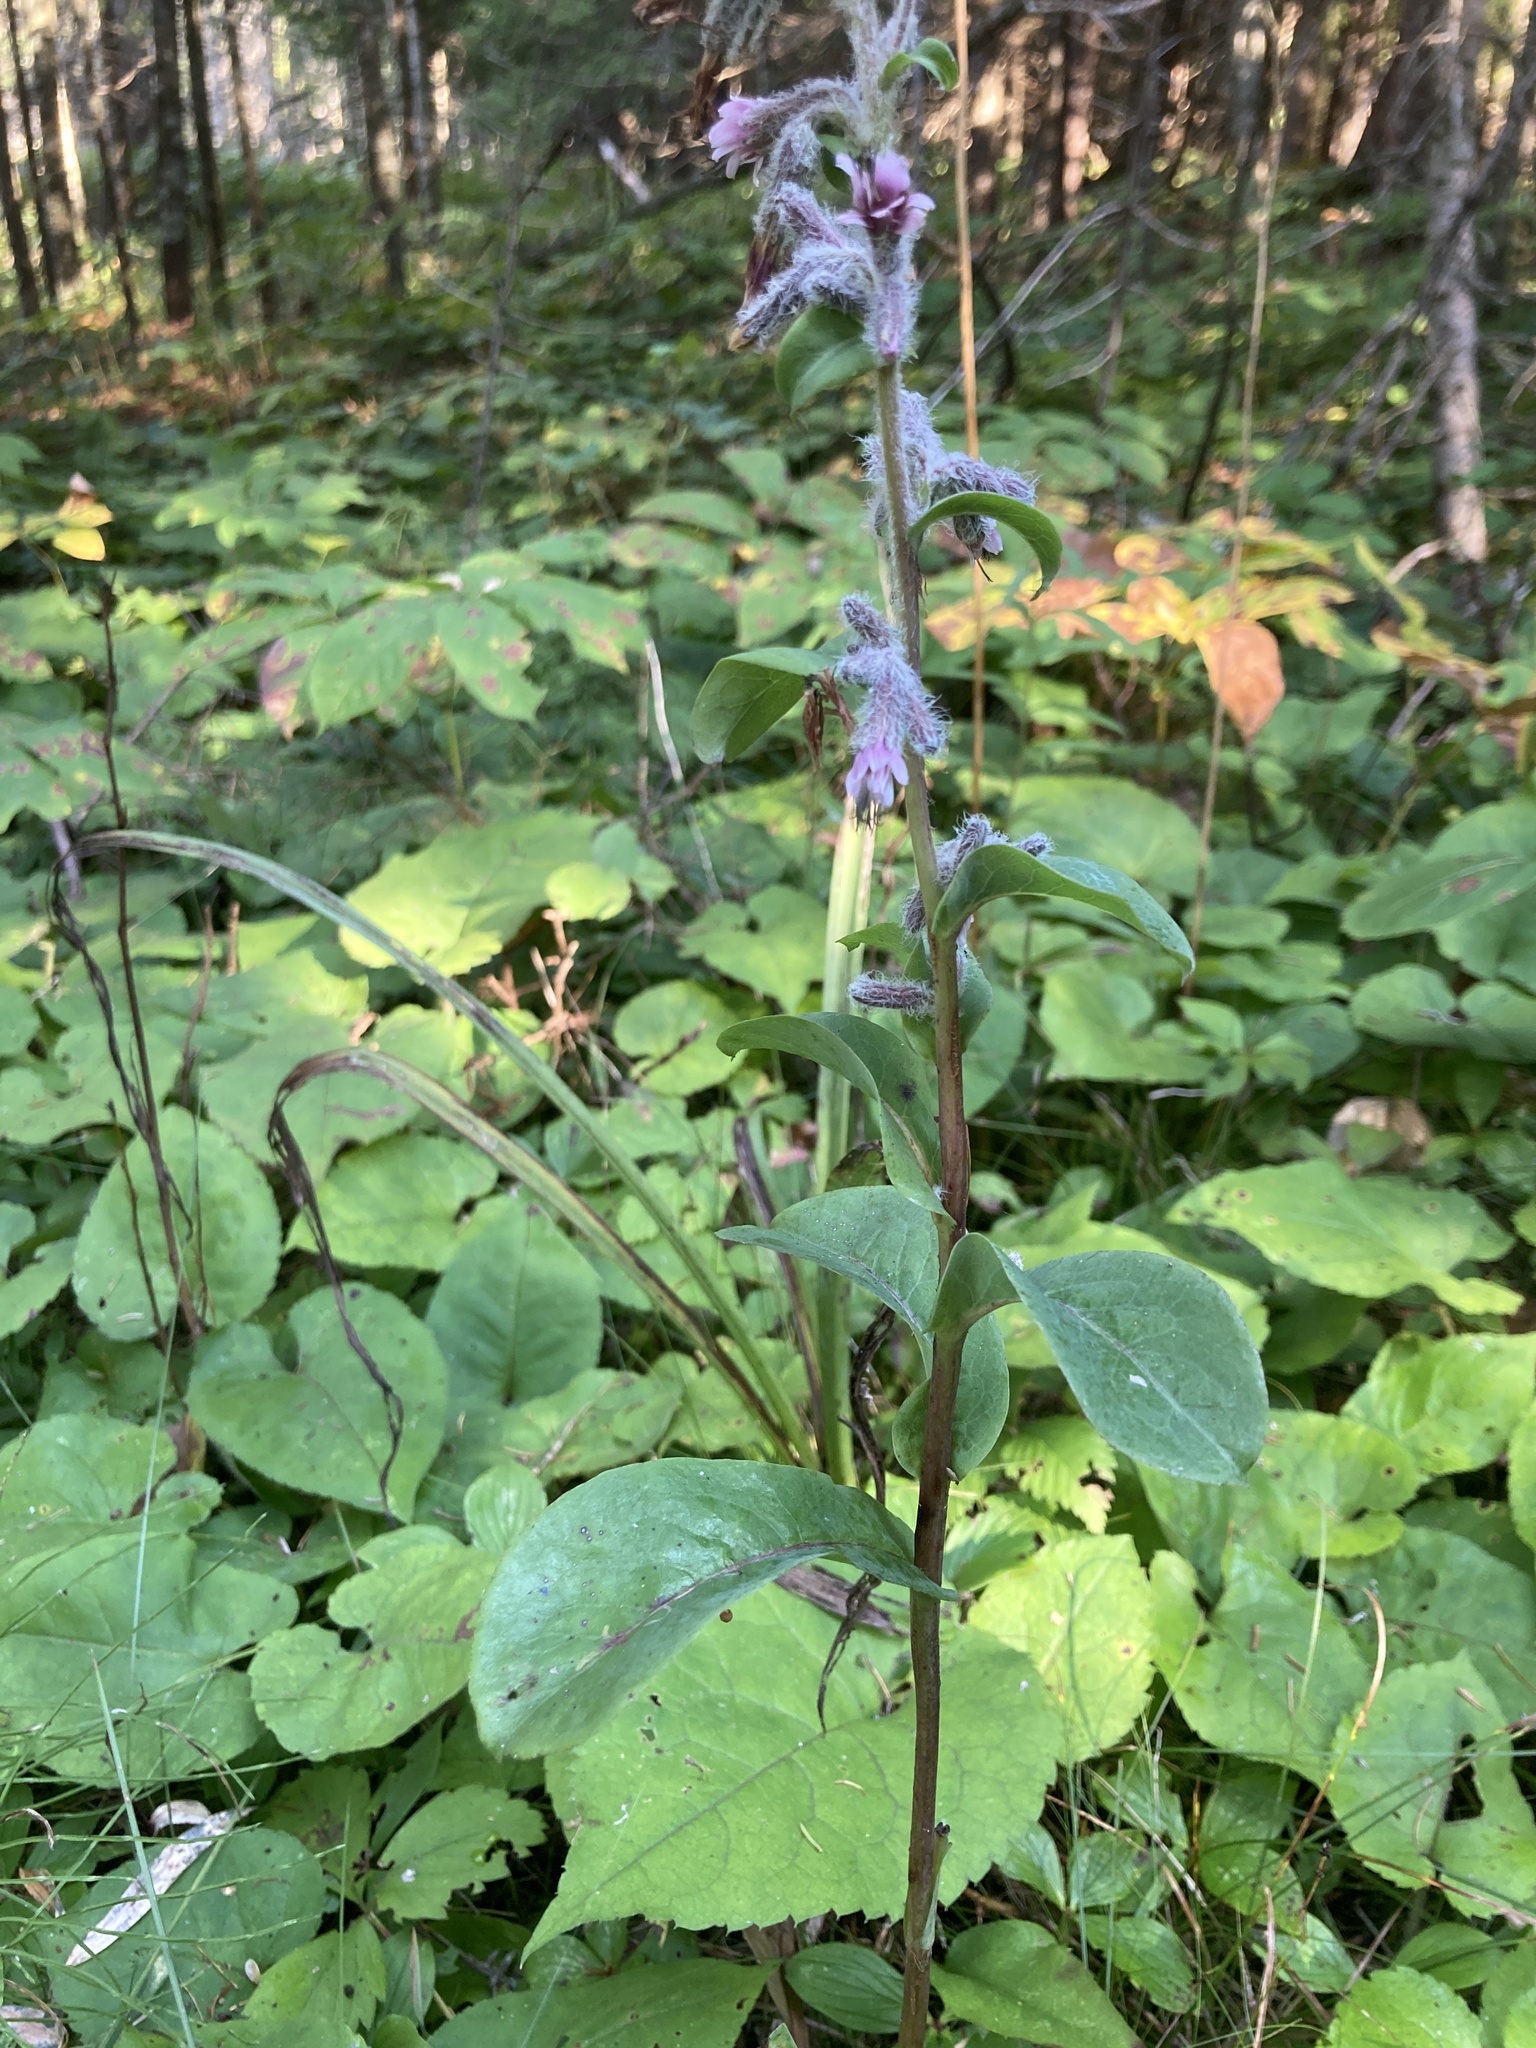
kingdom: Plantae
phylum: Tracheophyta
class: Magnoliopsida
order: Asterales
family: Asteraceae
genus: Nabalus
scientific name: Nabalus racemosus
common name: Glaucous white lettuce
